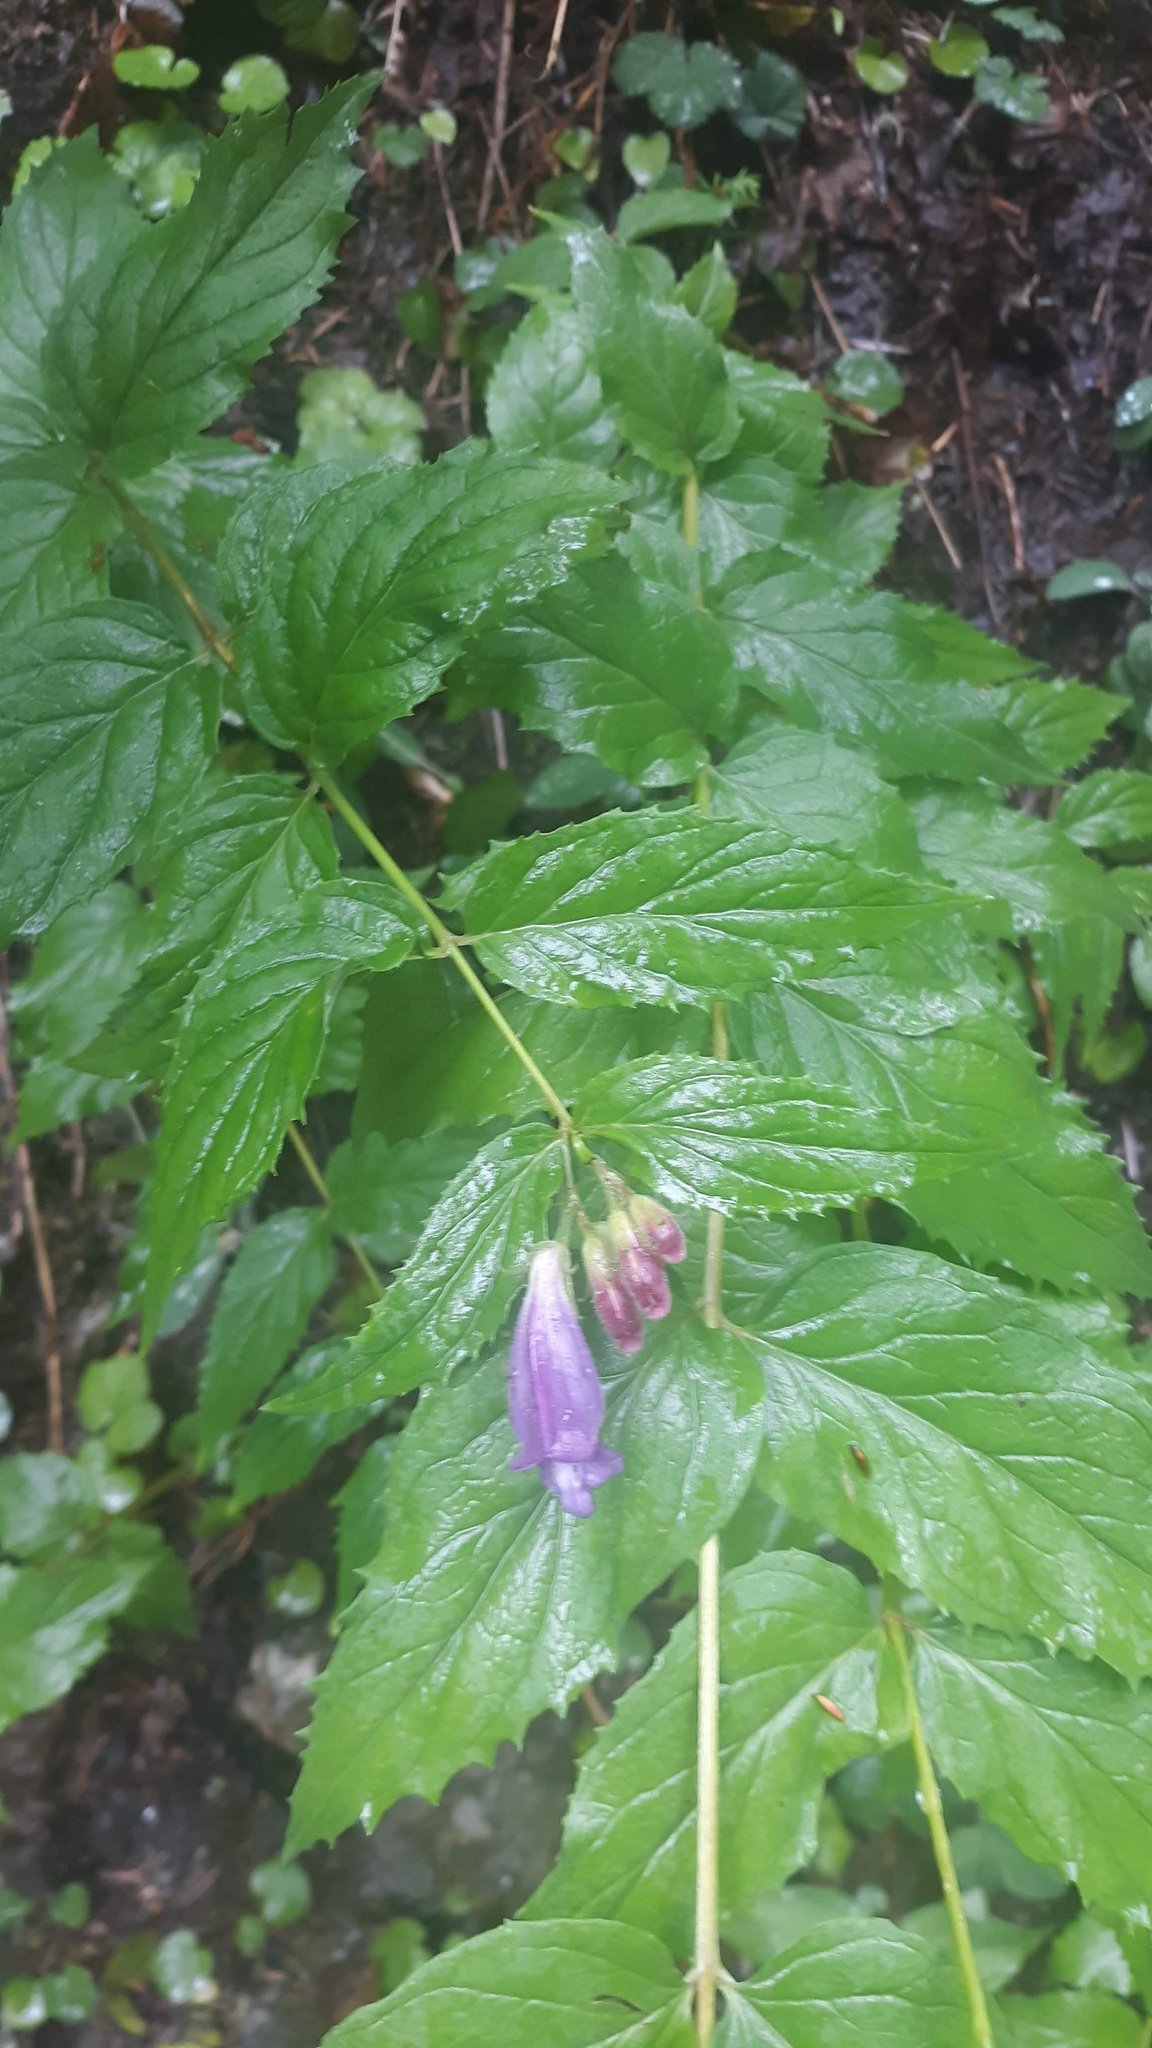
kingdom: Plantae
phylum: Tracheophyta
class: Magnoliopsida
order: Lamiales
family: Plantaginaceae
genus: Nothochelone
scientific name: Nothochelone nemorosa
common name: Woodland beardtongue
